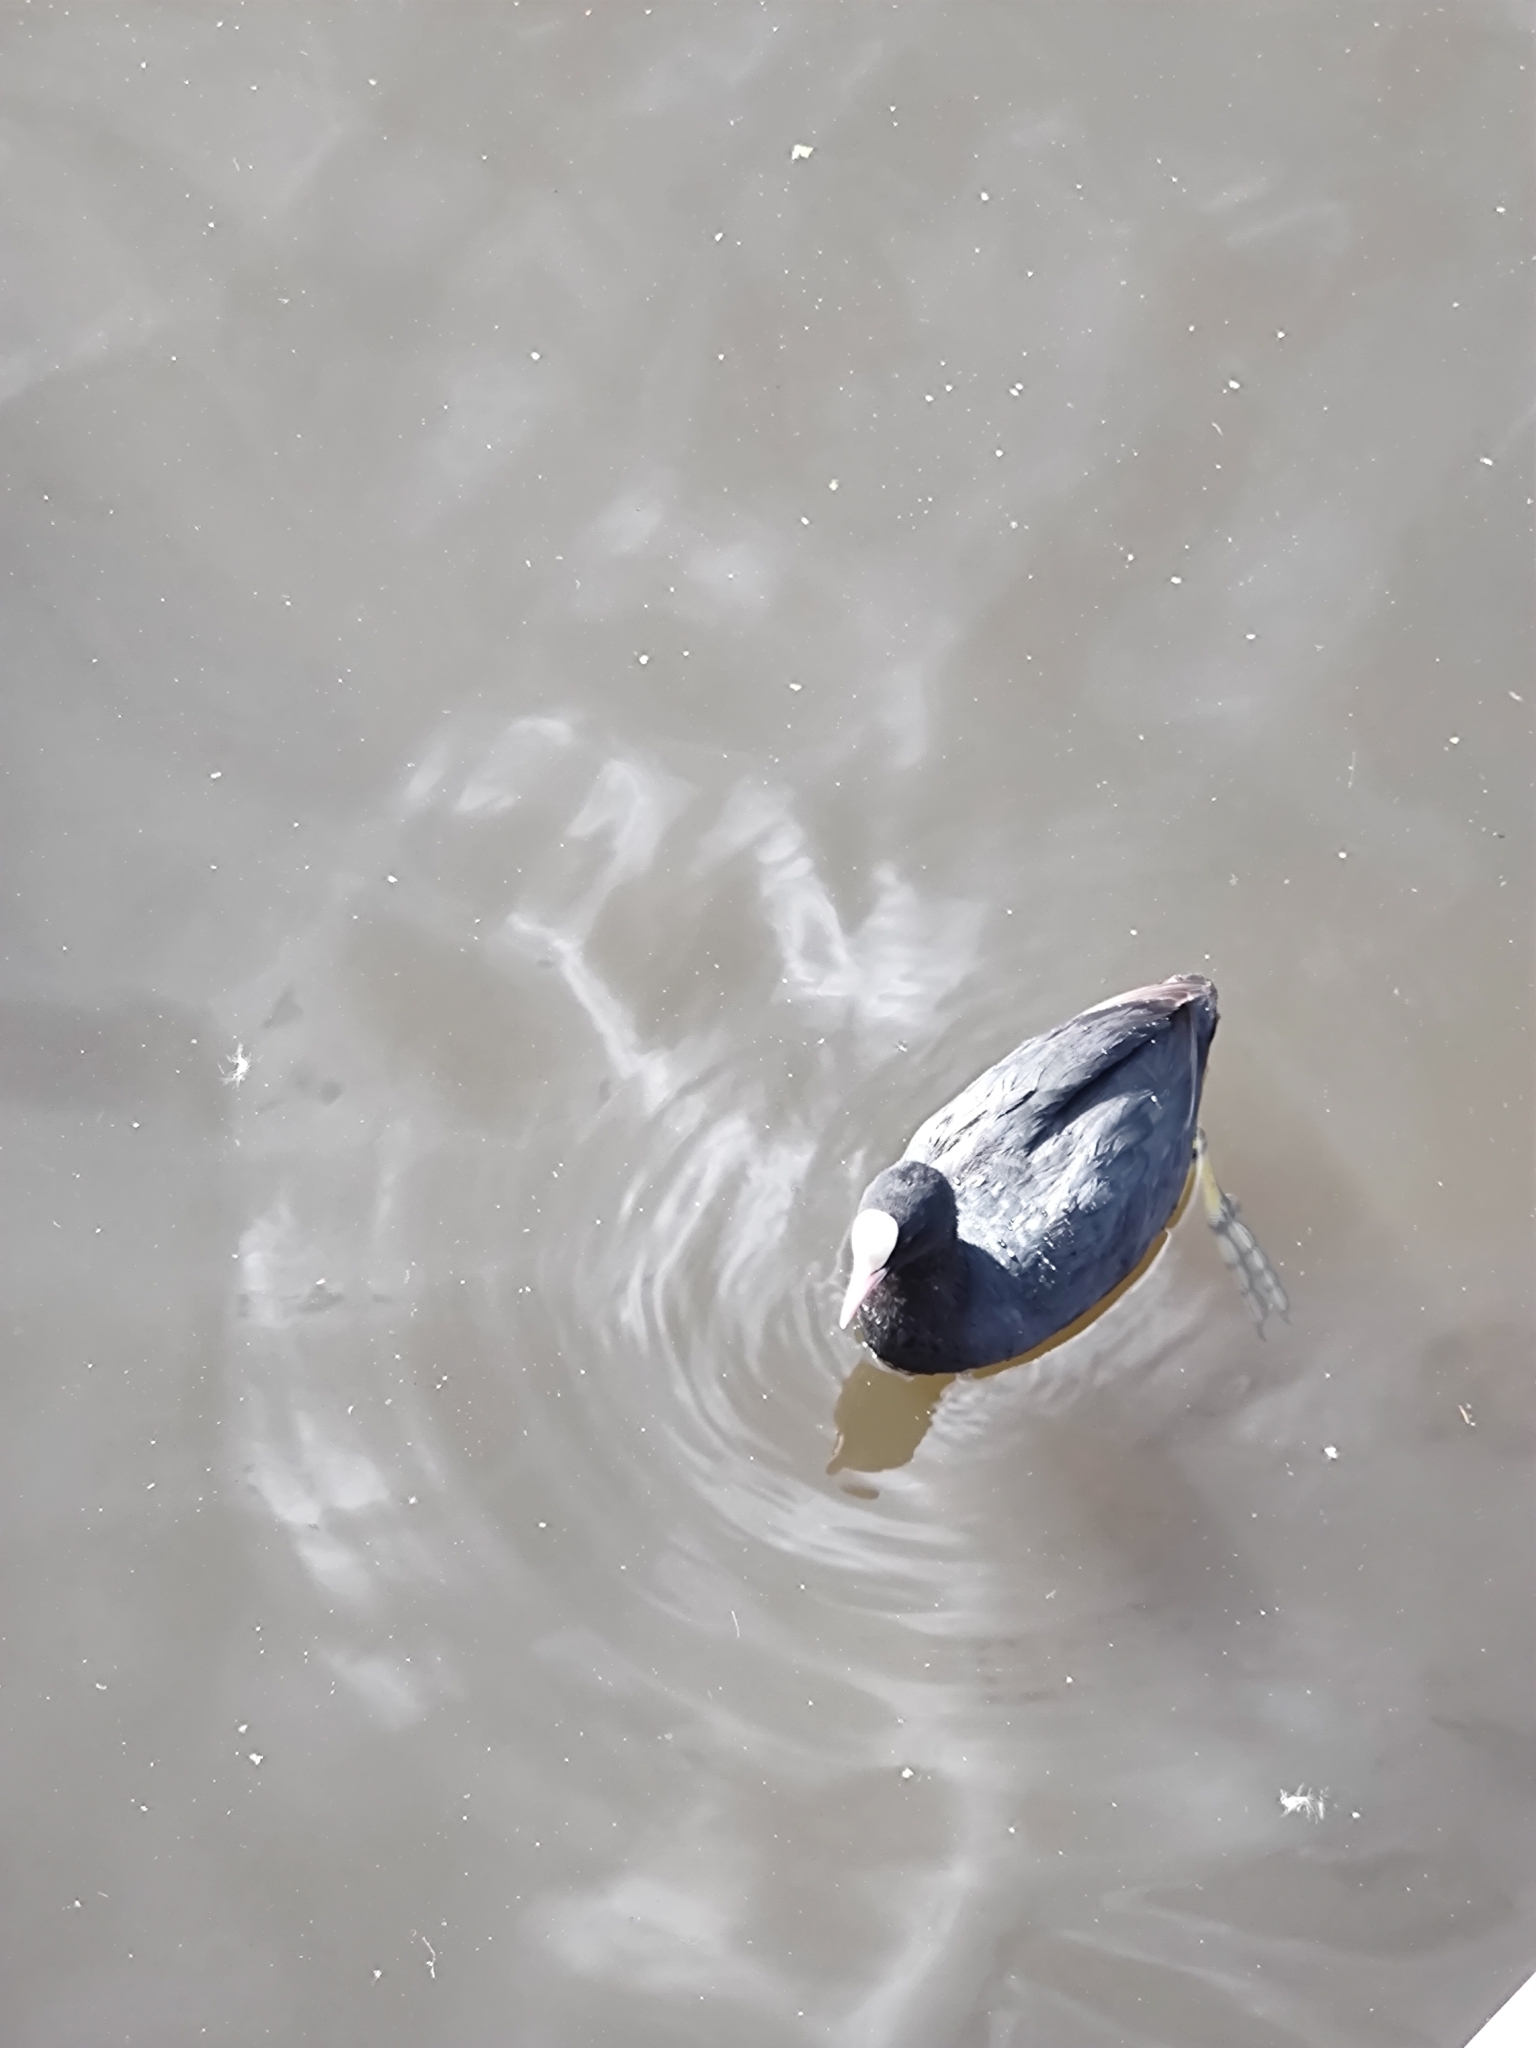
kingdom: Animalia
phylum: Chordata
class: Aves
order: Gruiformes
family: Rallidae
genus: Fulica
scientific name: Fulica atra
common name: Eurasian coot
